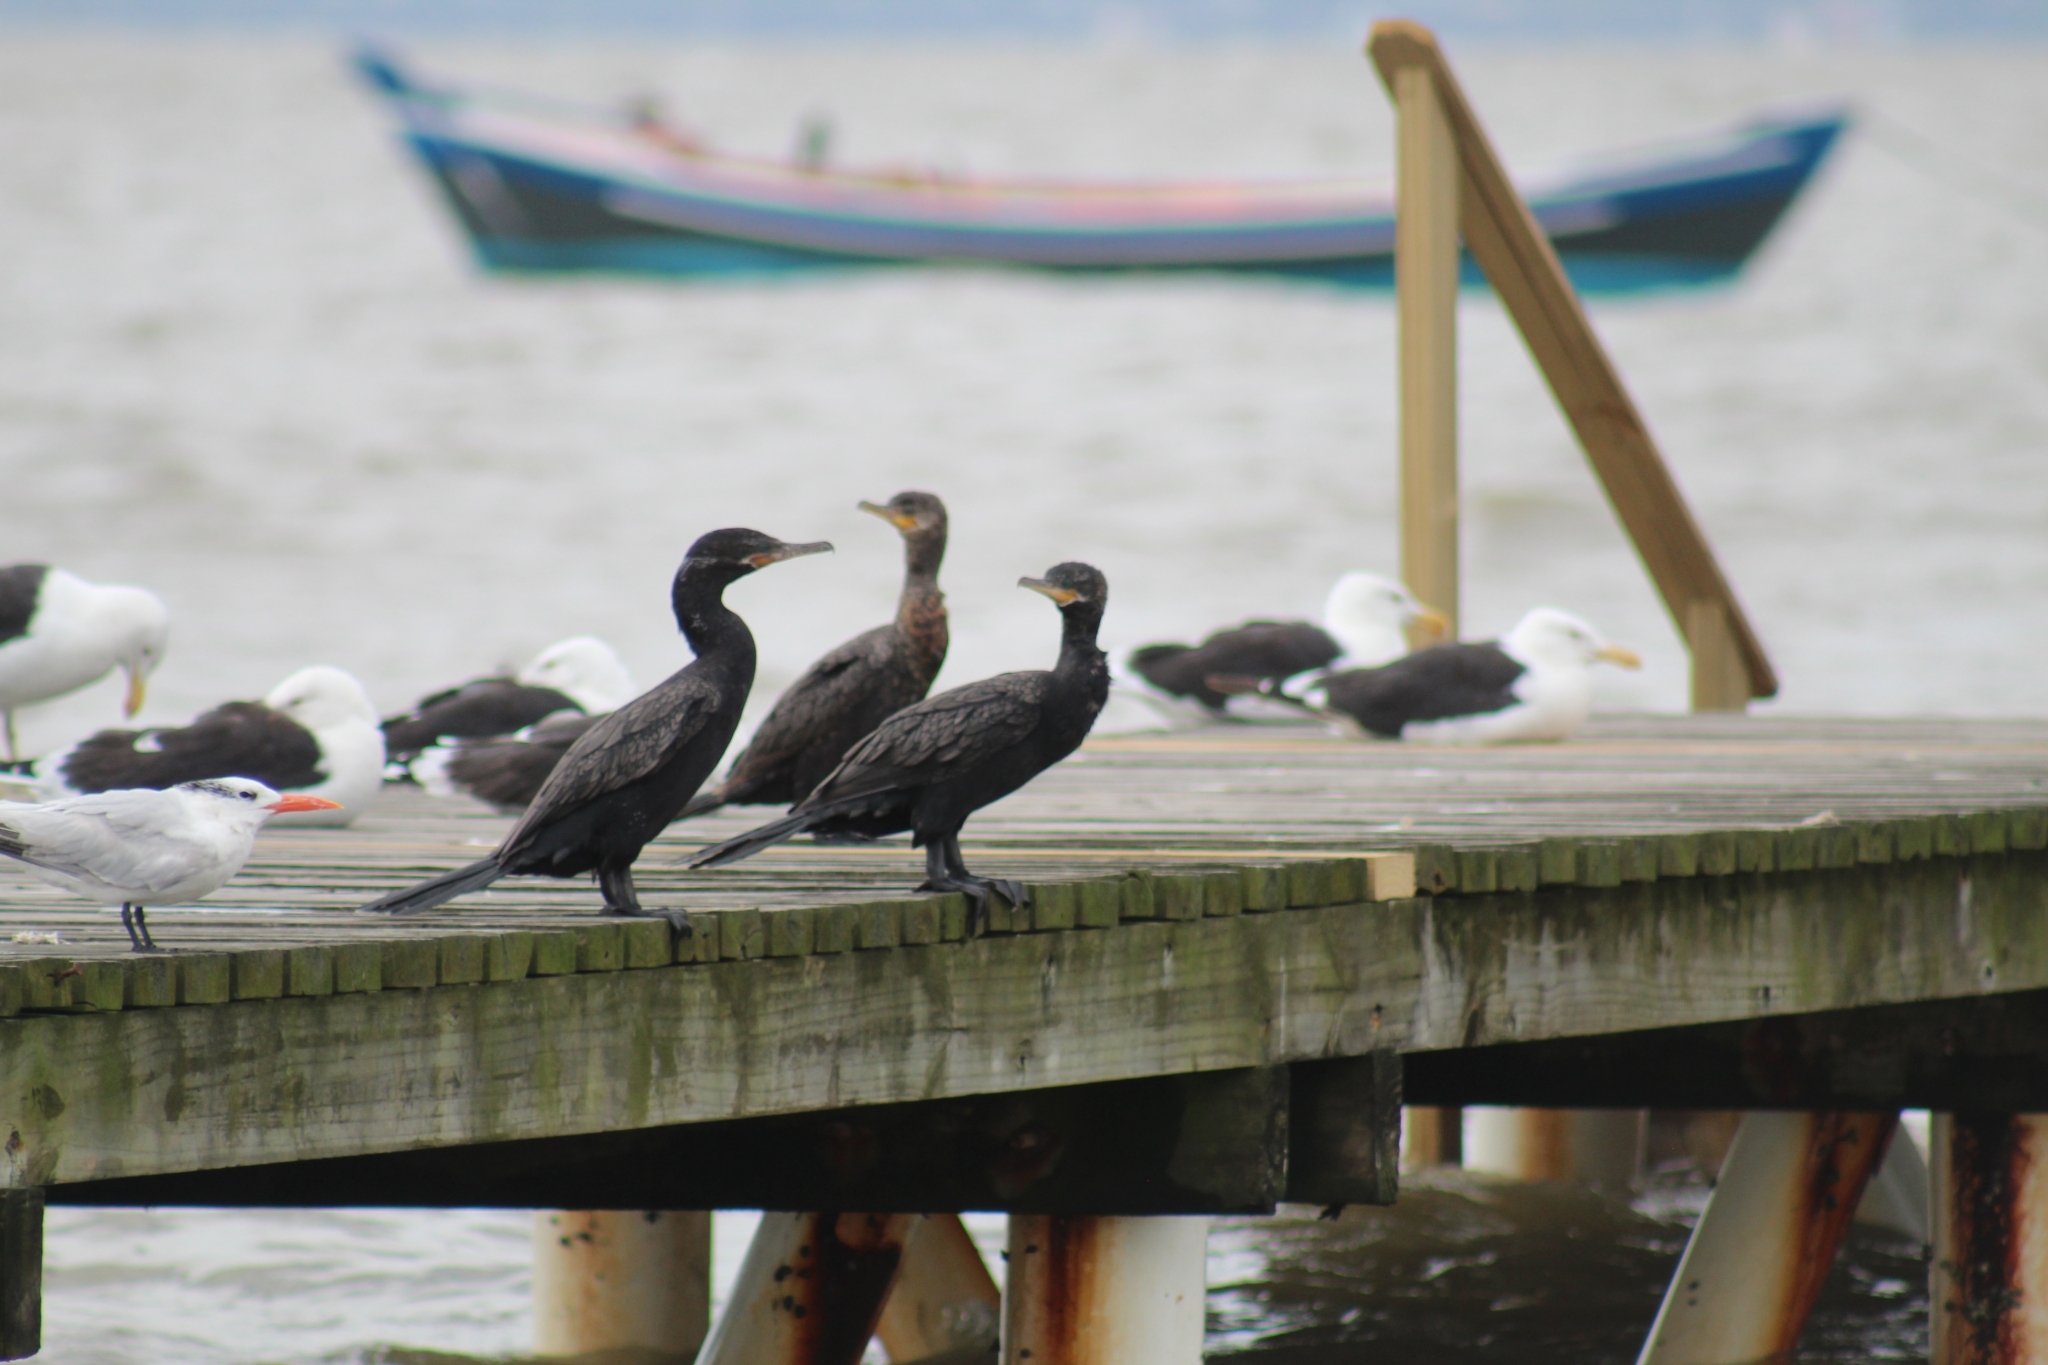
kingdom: Animalia
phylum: Chordata
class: Aves
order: Suliformes
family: Phalacrocoracidae
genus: Phalacrocorax
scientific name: Phalacrocorax brasilianus
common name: Neotropic cormorant
